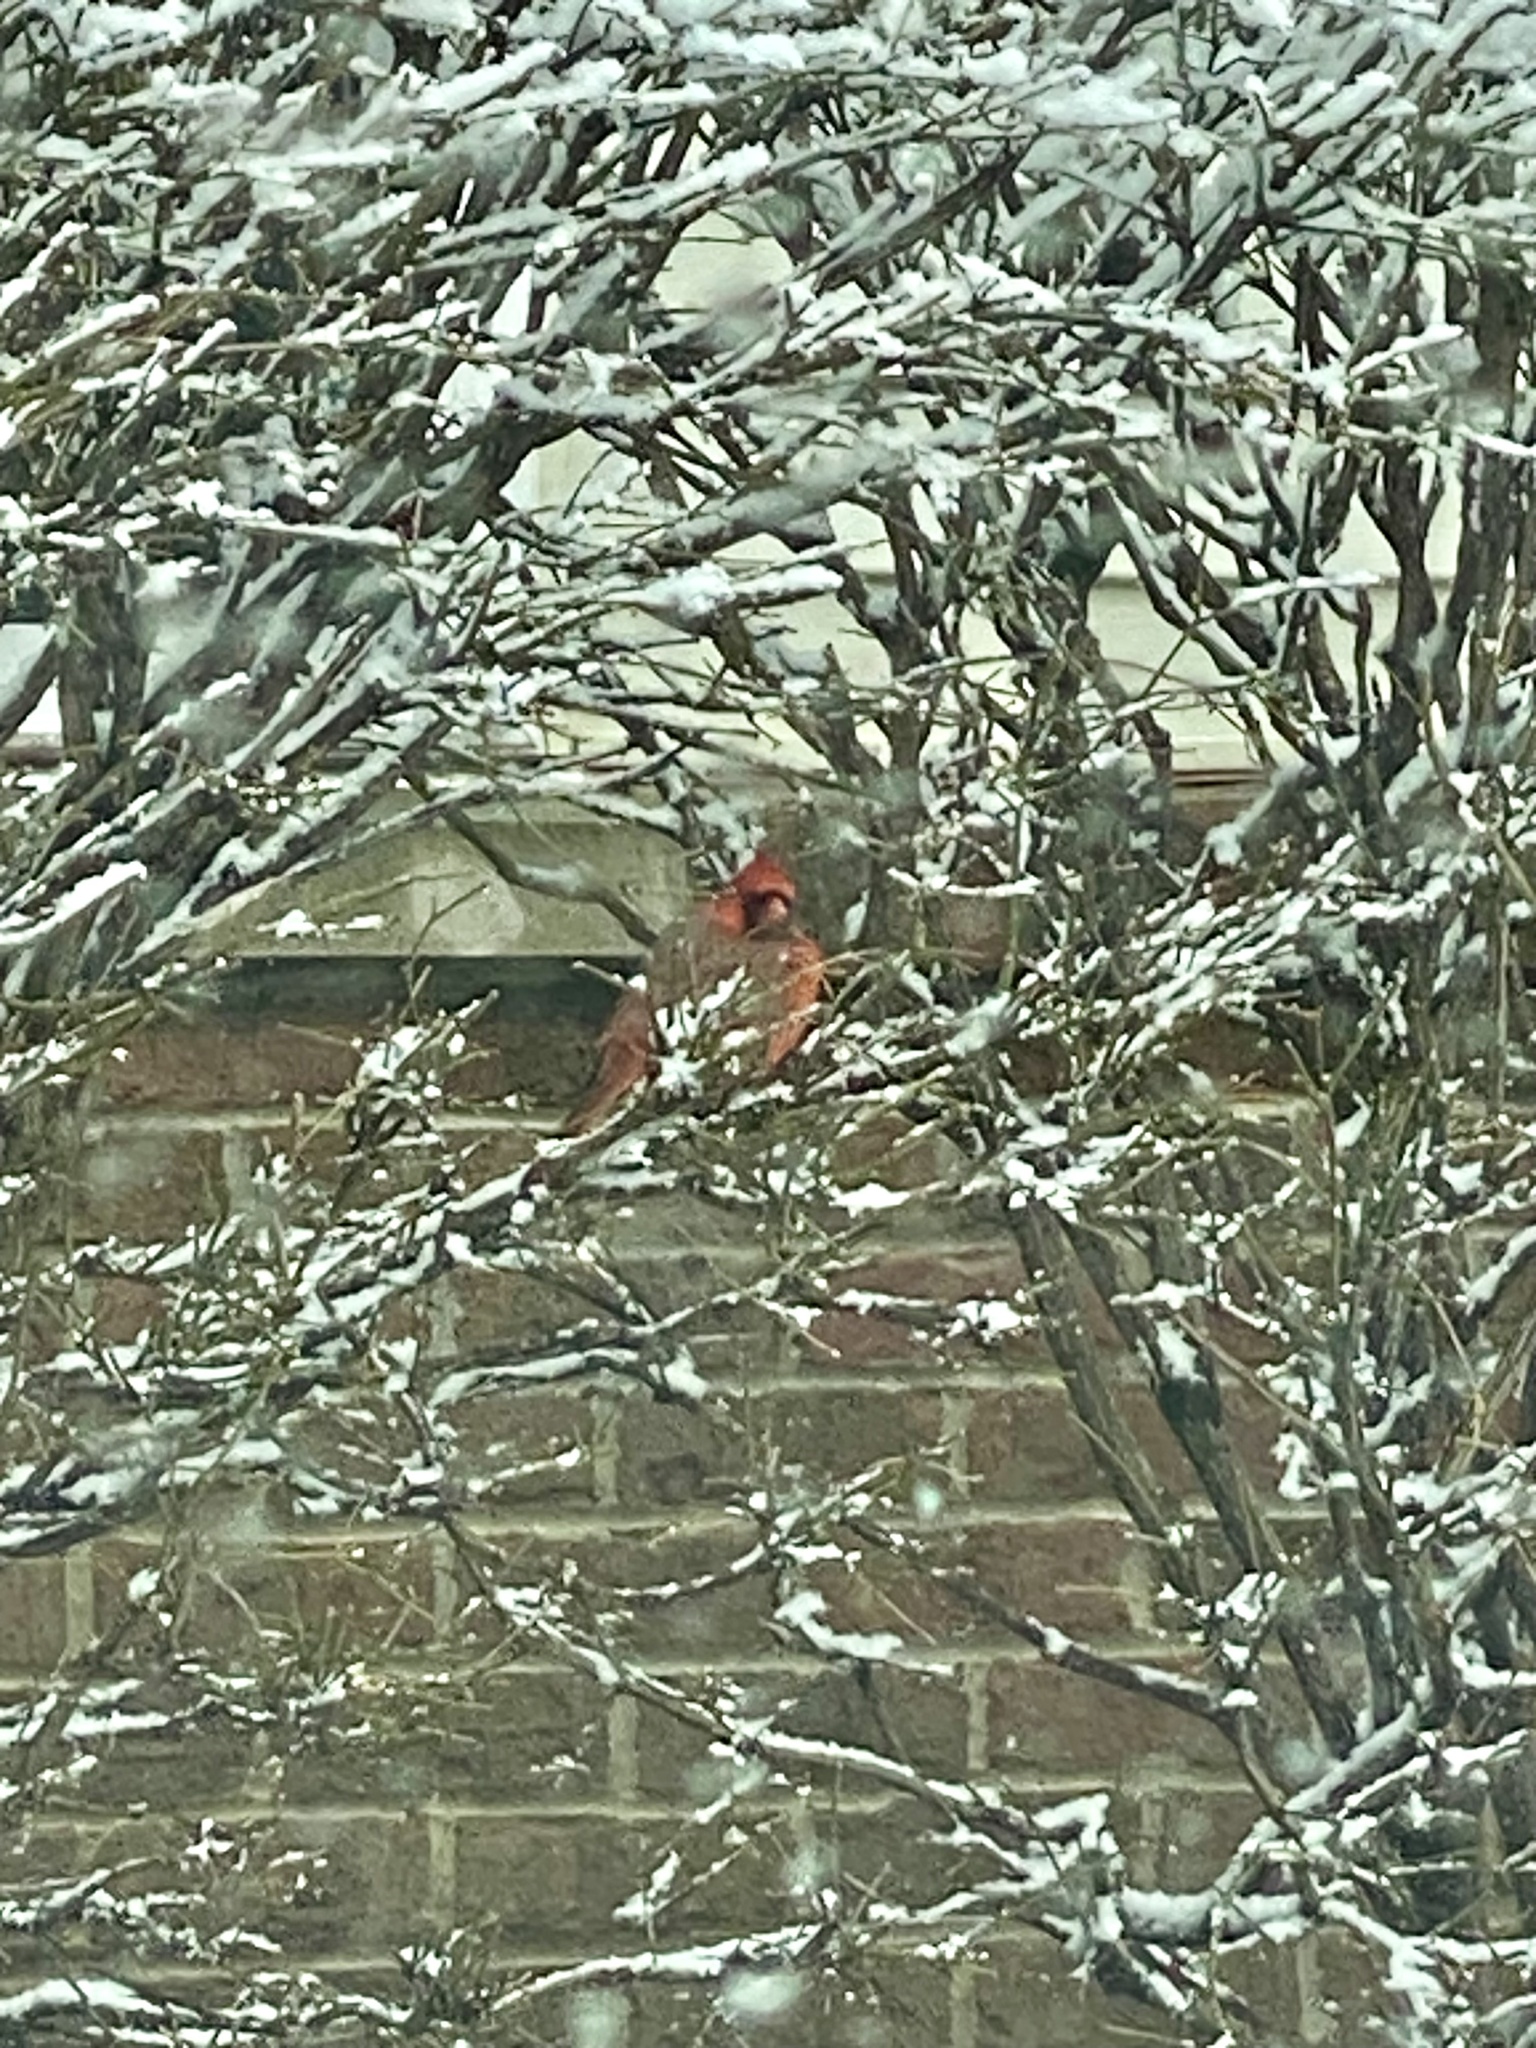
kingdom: Animalia
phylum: Chordata
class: Aves
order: Passeriformes
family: Cardinalidae
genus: Cardinalis
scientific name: Cardinalis cardinalis
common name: Northern cardinal
